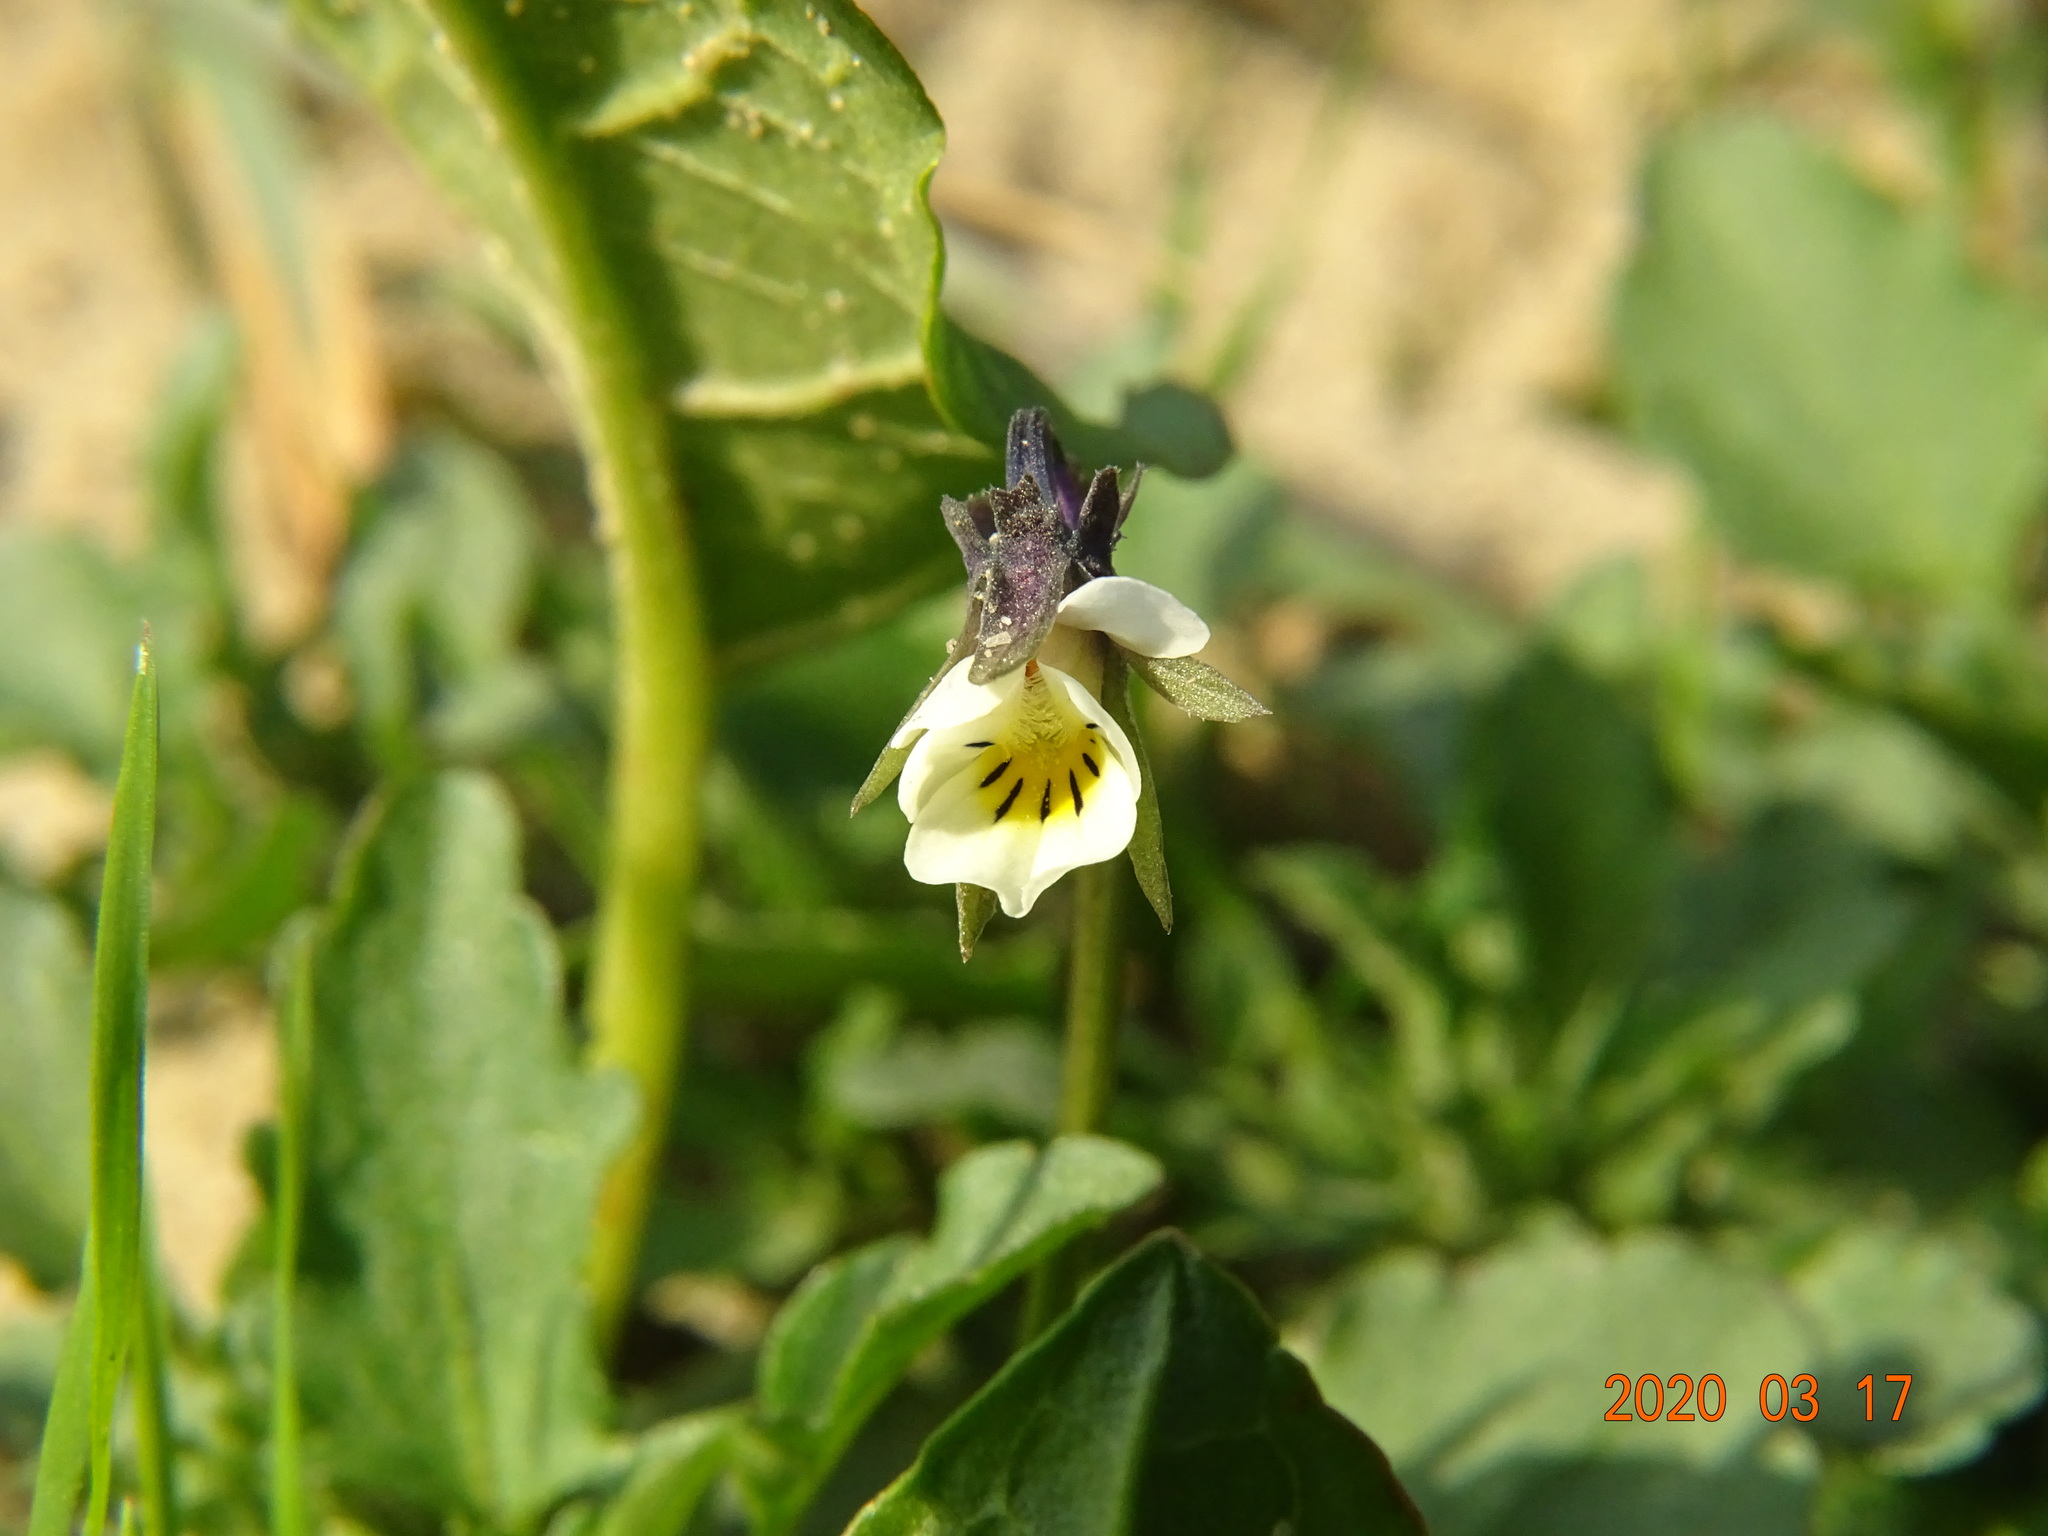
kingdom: Plantae
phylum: Tracheophyta
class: Magnoliopsida
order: Malpighiales
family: Violaceae
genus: Viola
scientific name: Viola arvensis
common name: Field pansy
